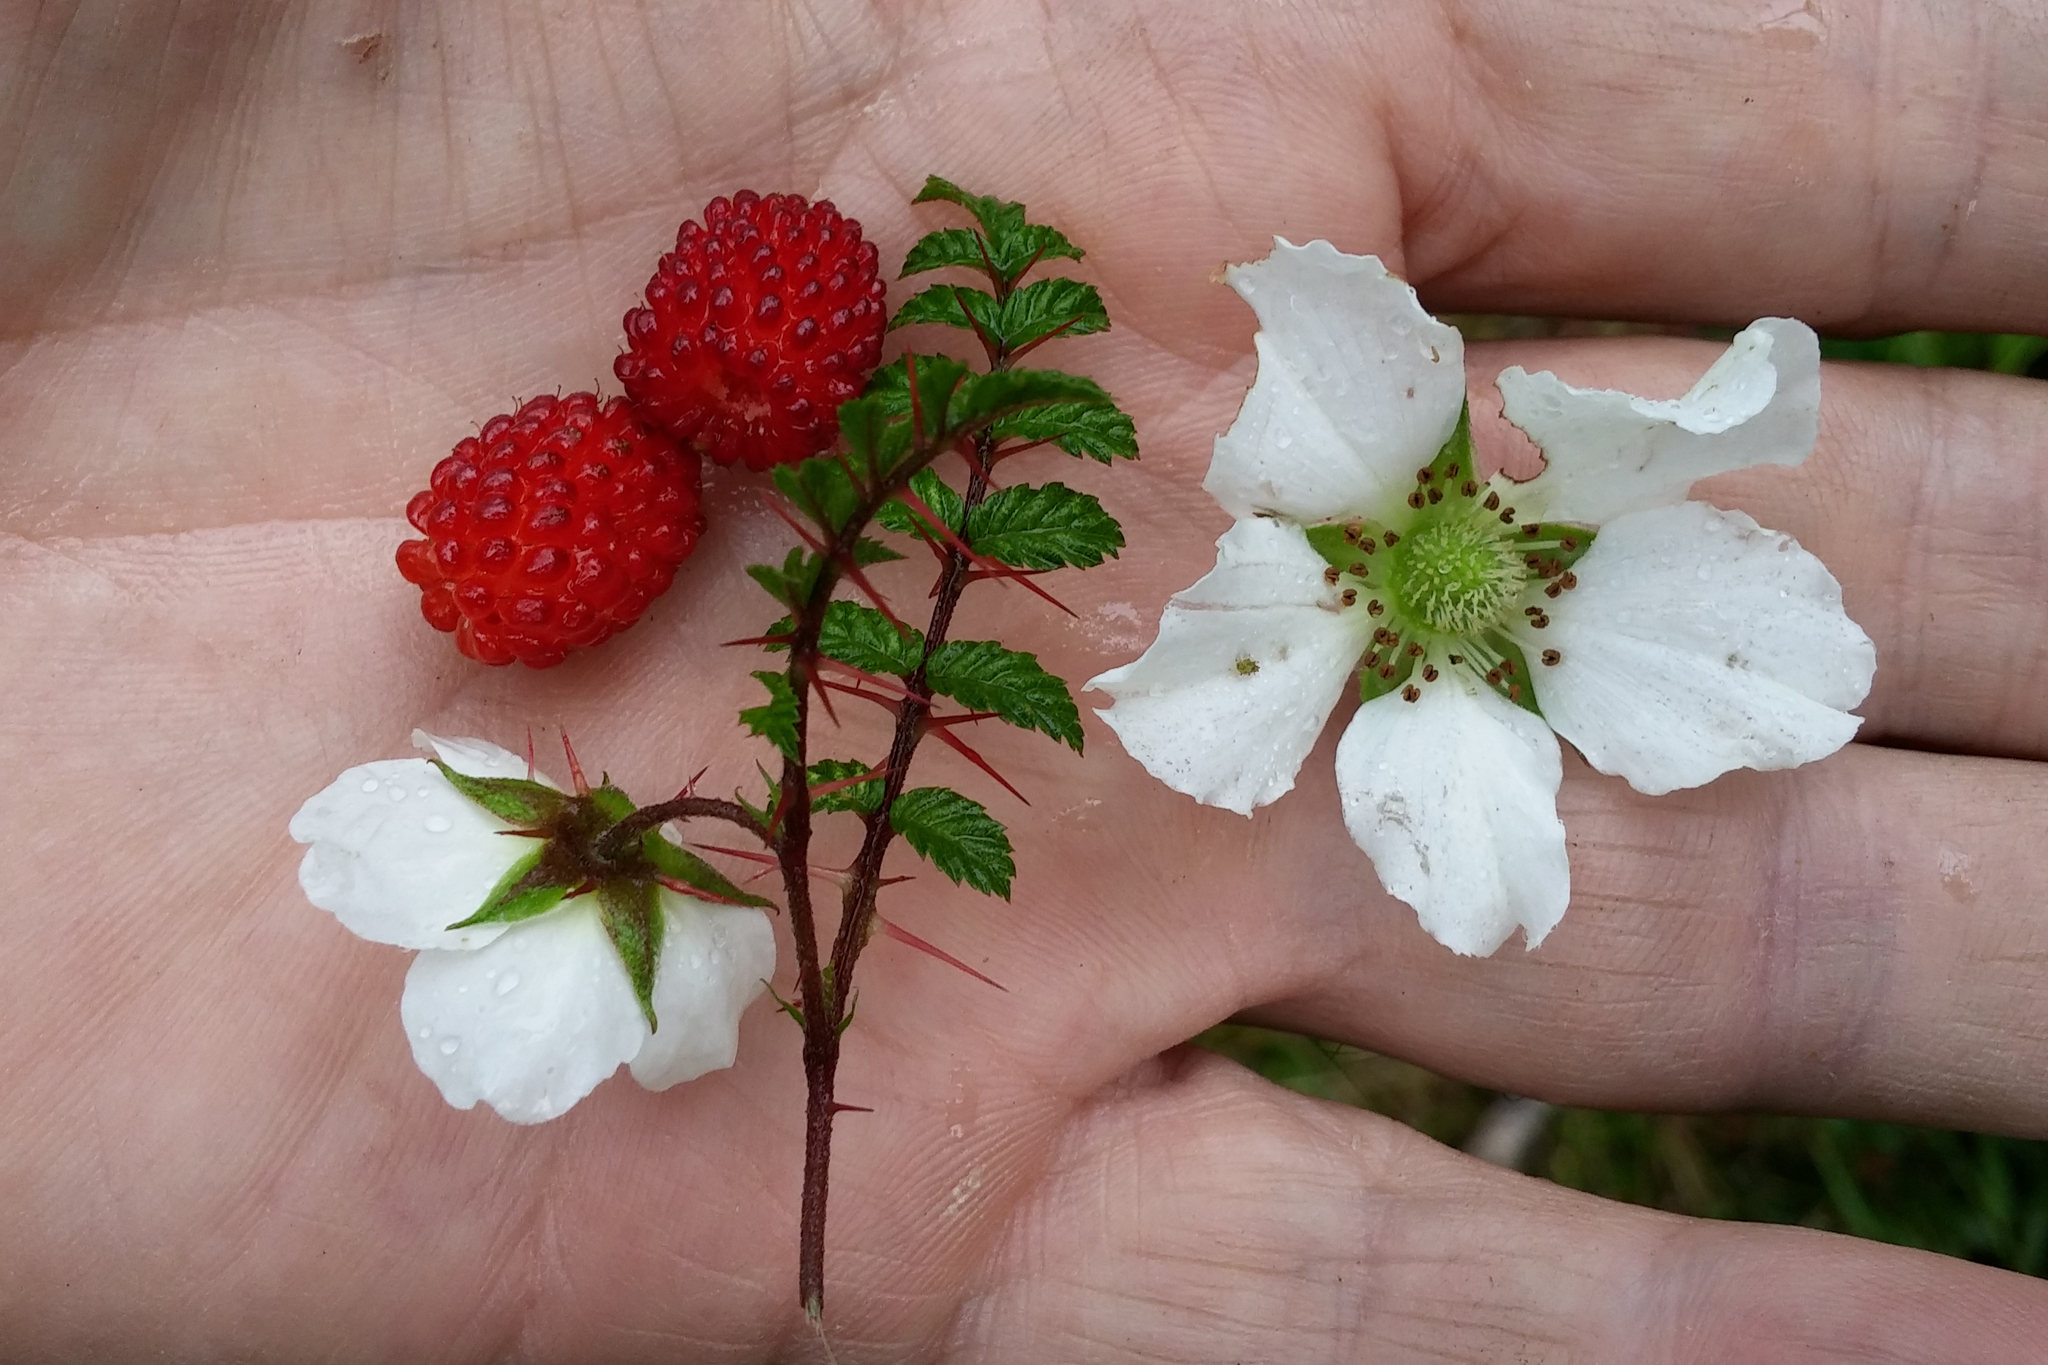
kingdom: Plantae
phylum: Tracheophyta
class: Magnoliopsida
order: Rosales
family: Rosaceae
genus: Rubus
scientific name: Rubus papuanus
